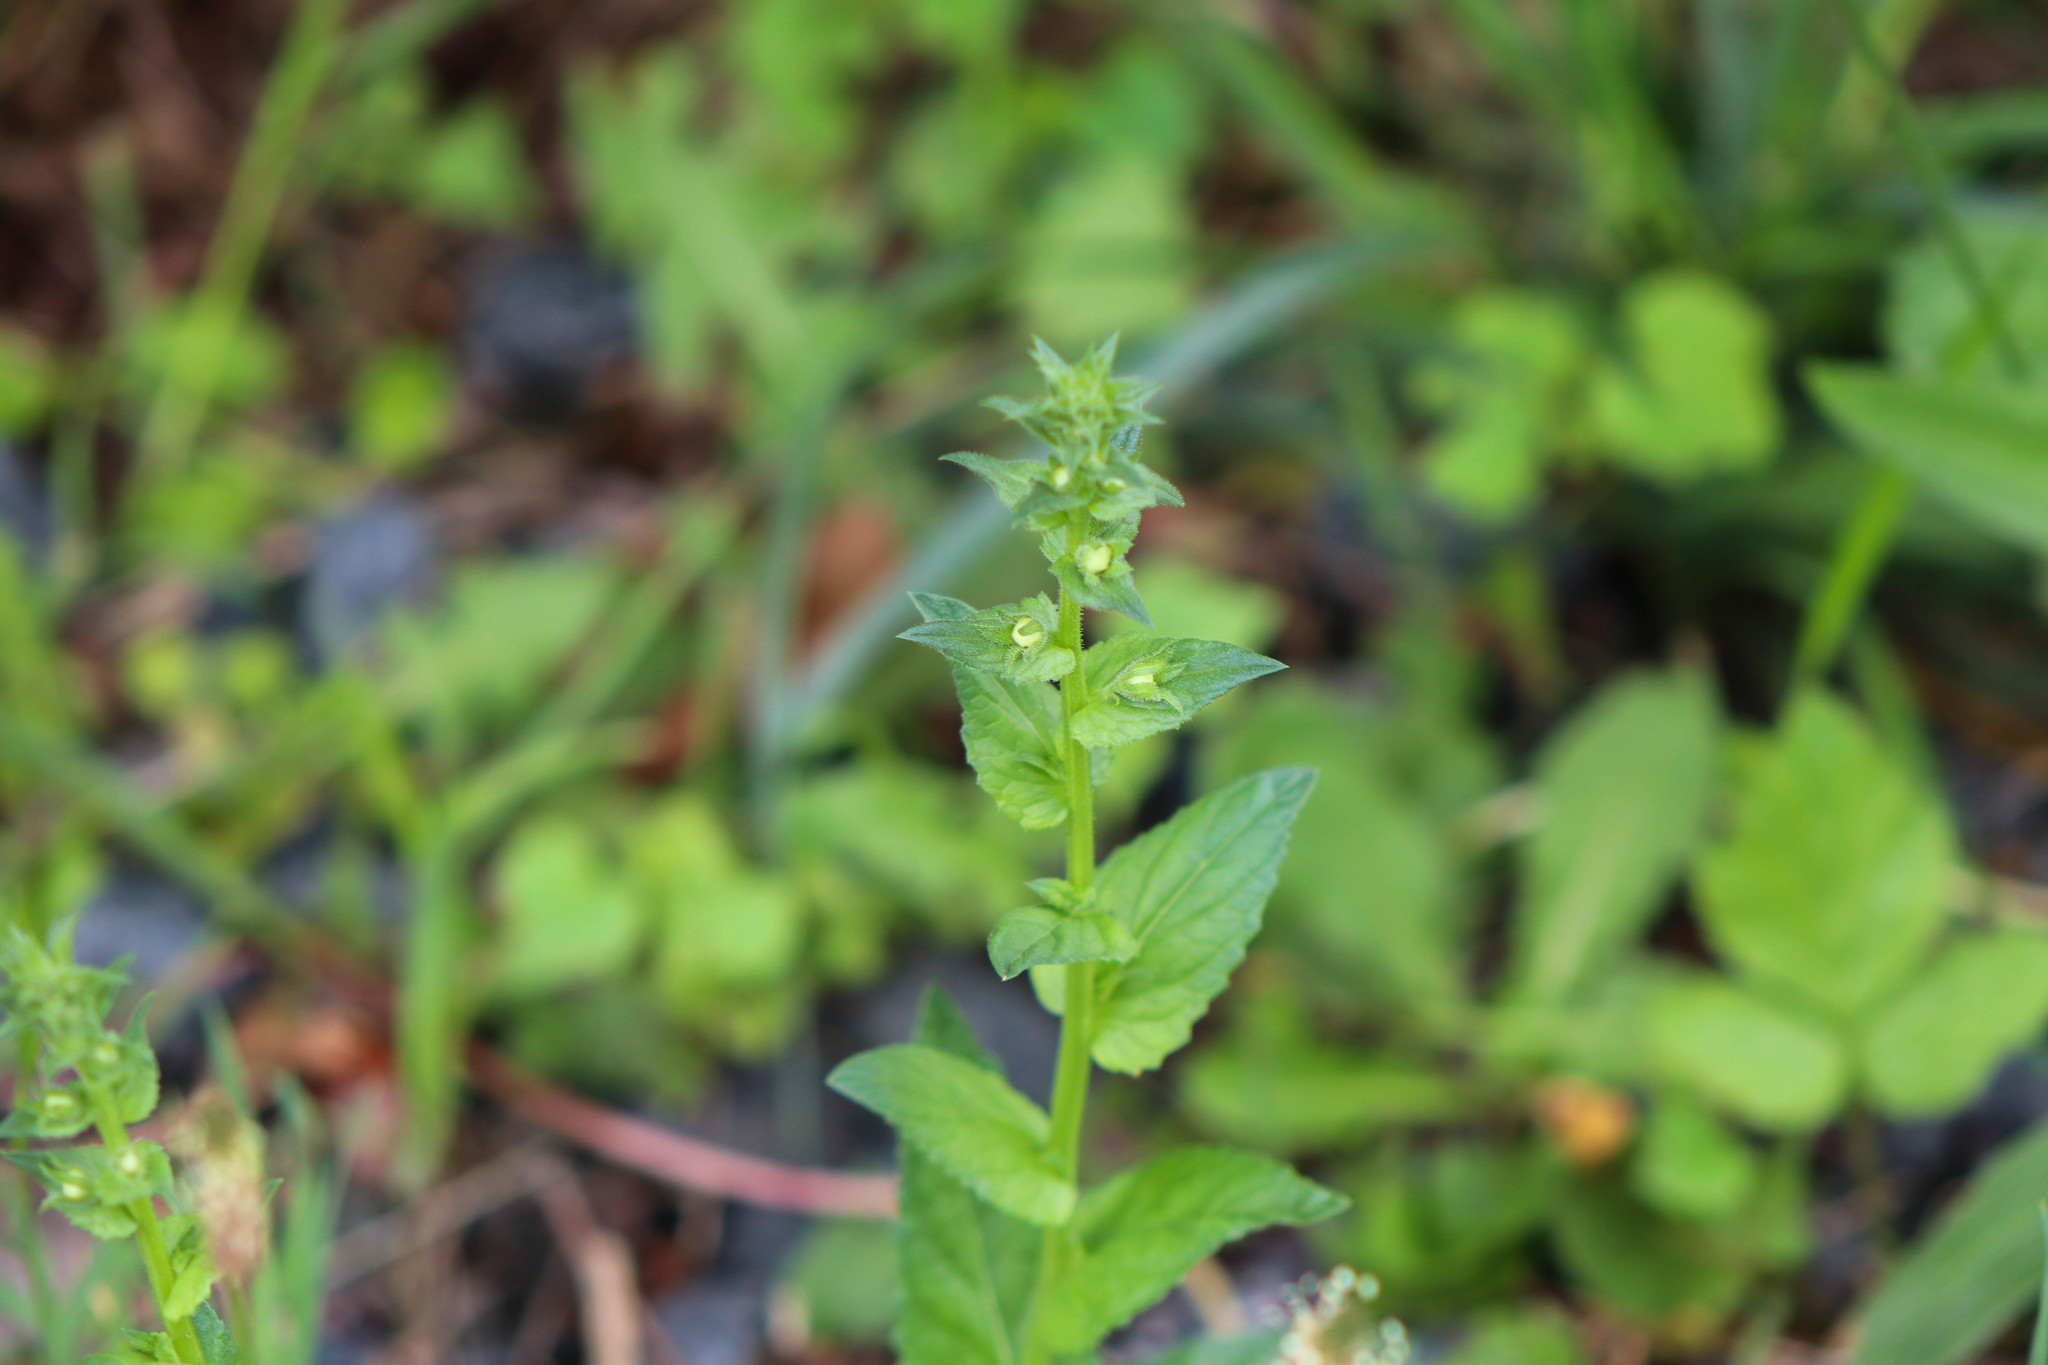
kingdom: Plantae
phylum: Tracheophyta
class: Magnoliopsida
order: Lamiales
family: Scrophulariaceae
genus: Verbascum
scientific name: Verbascum blattaria
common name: Moth mullein
